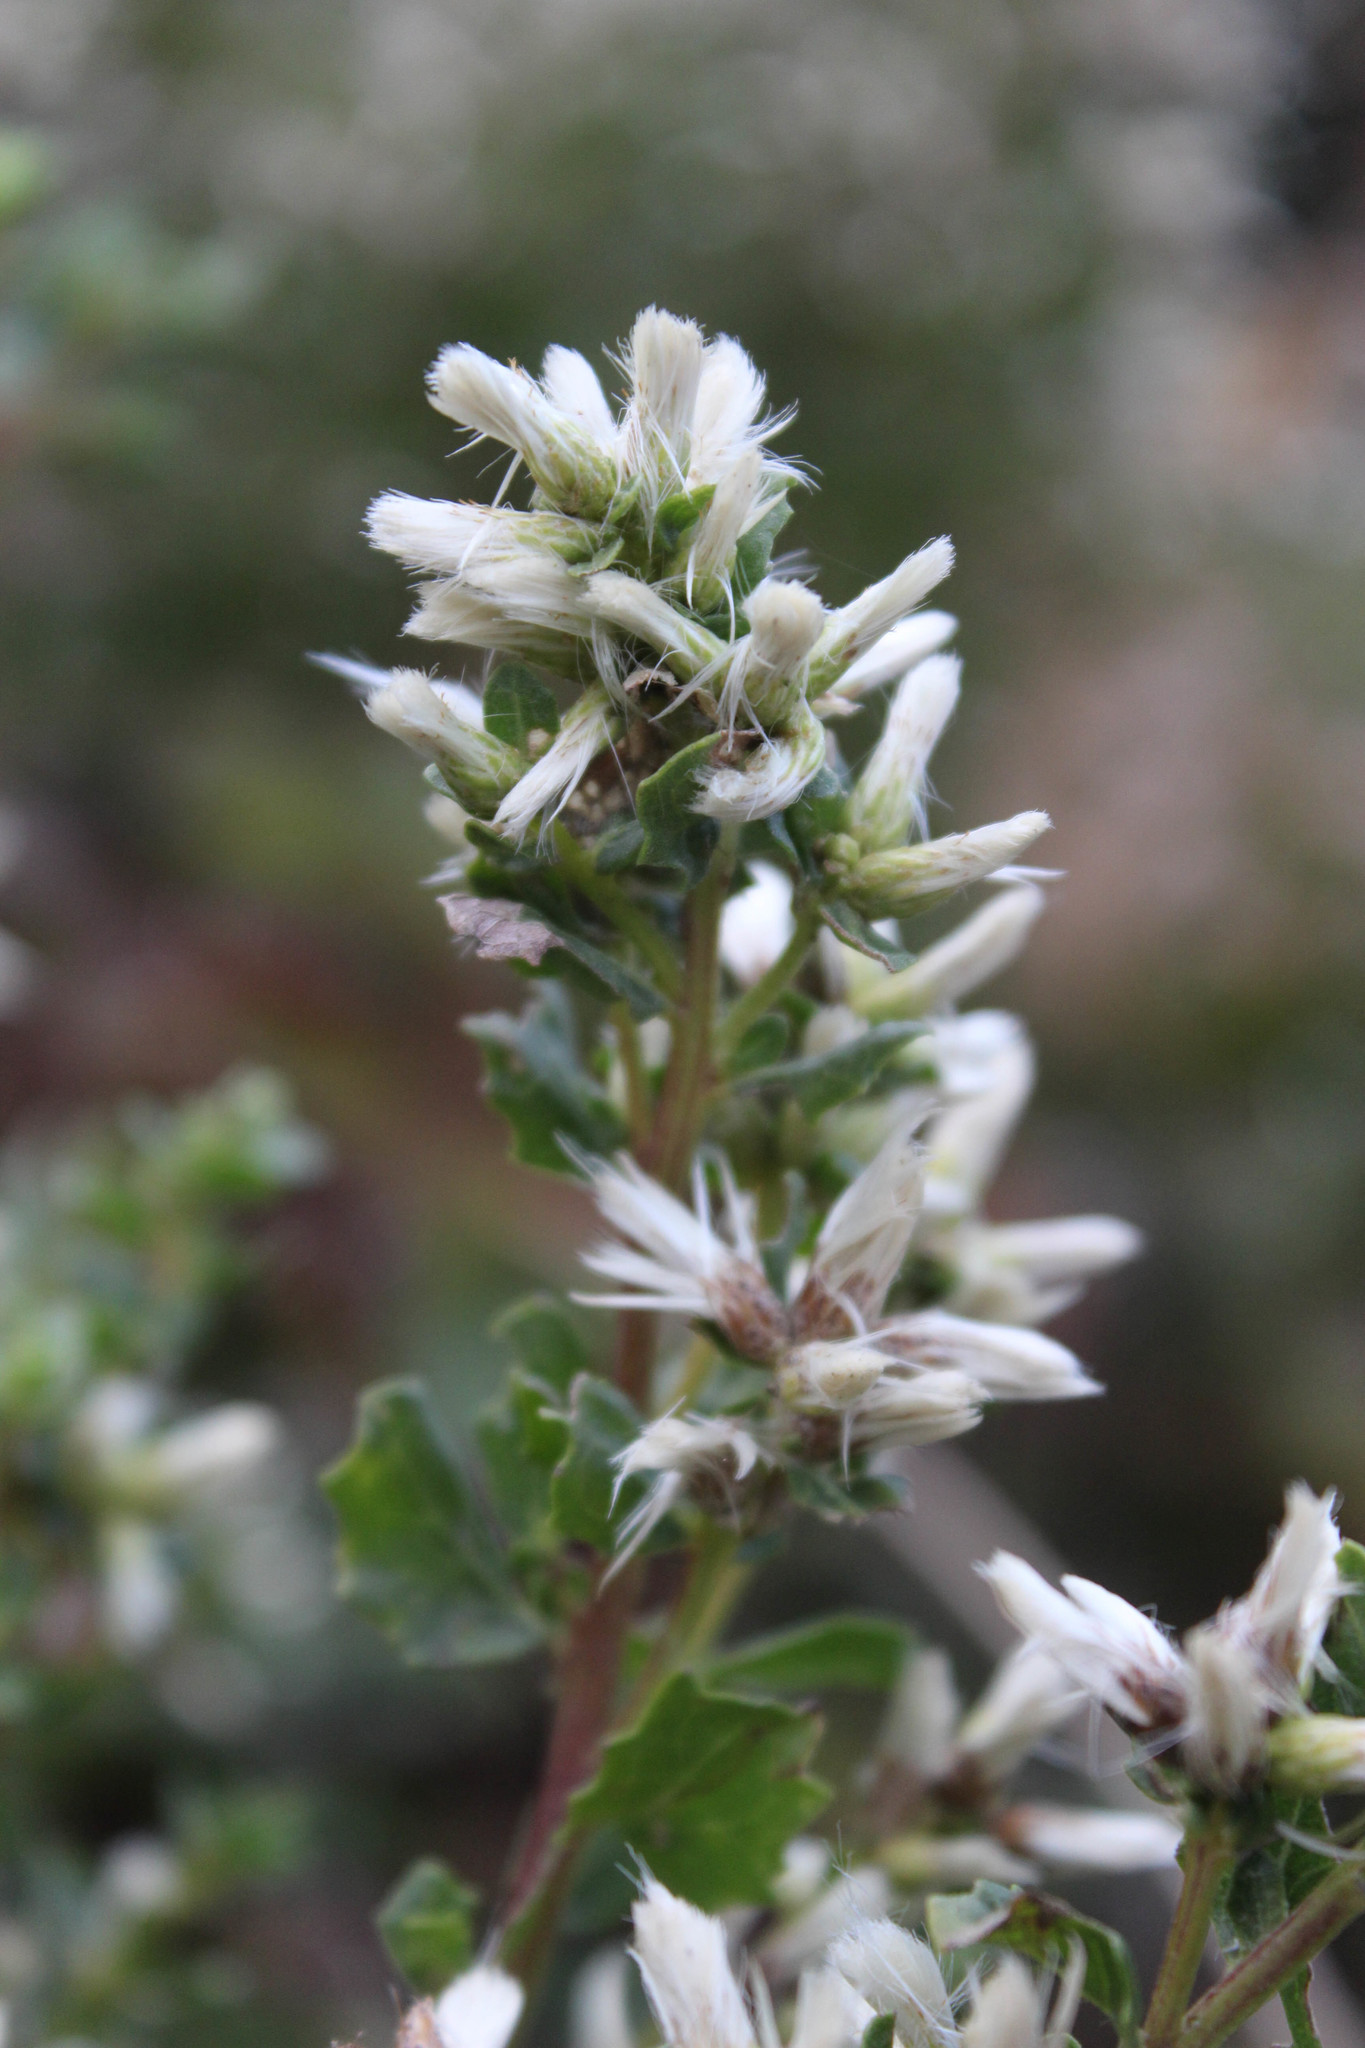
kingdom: Plantae
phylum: Tracheophyta
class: Magnoliopsida
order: Asterales
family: Asteraceae
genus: Baccharis
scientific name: Baccharis pilularis
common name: Coyotebrush
